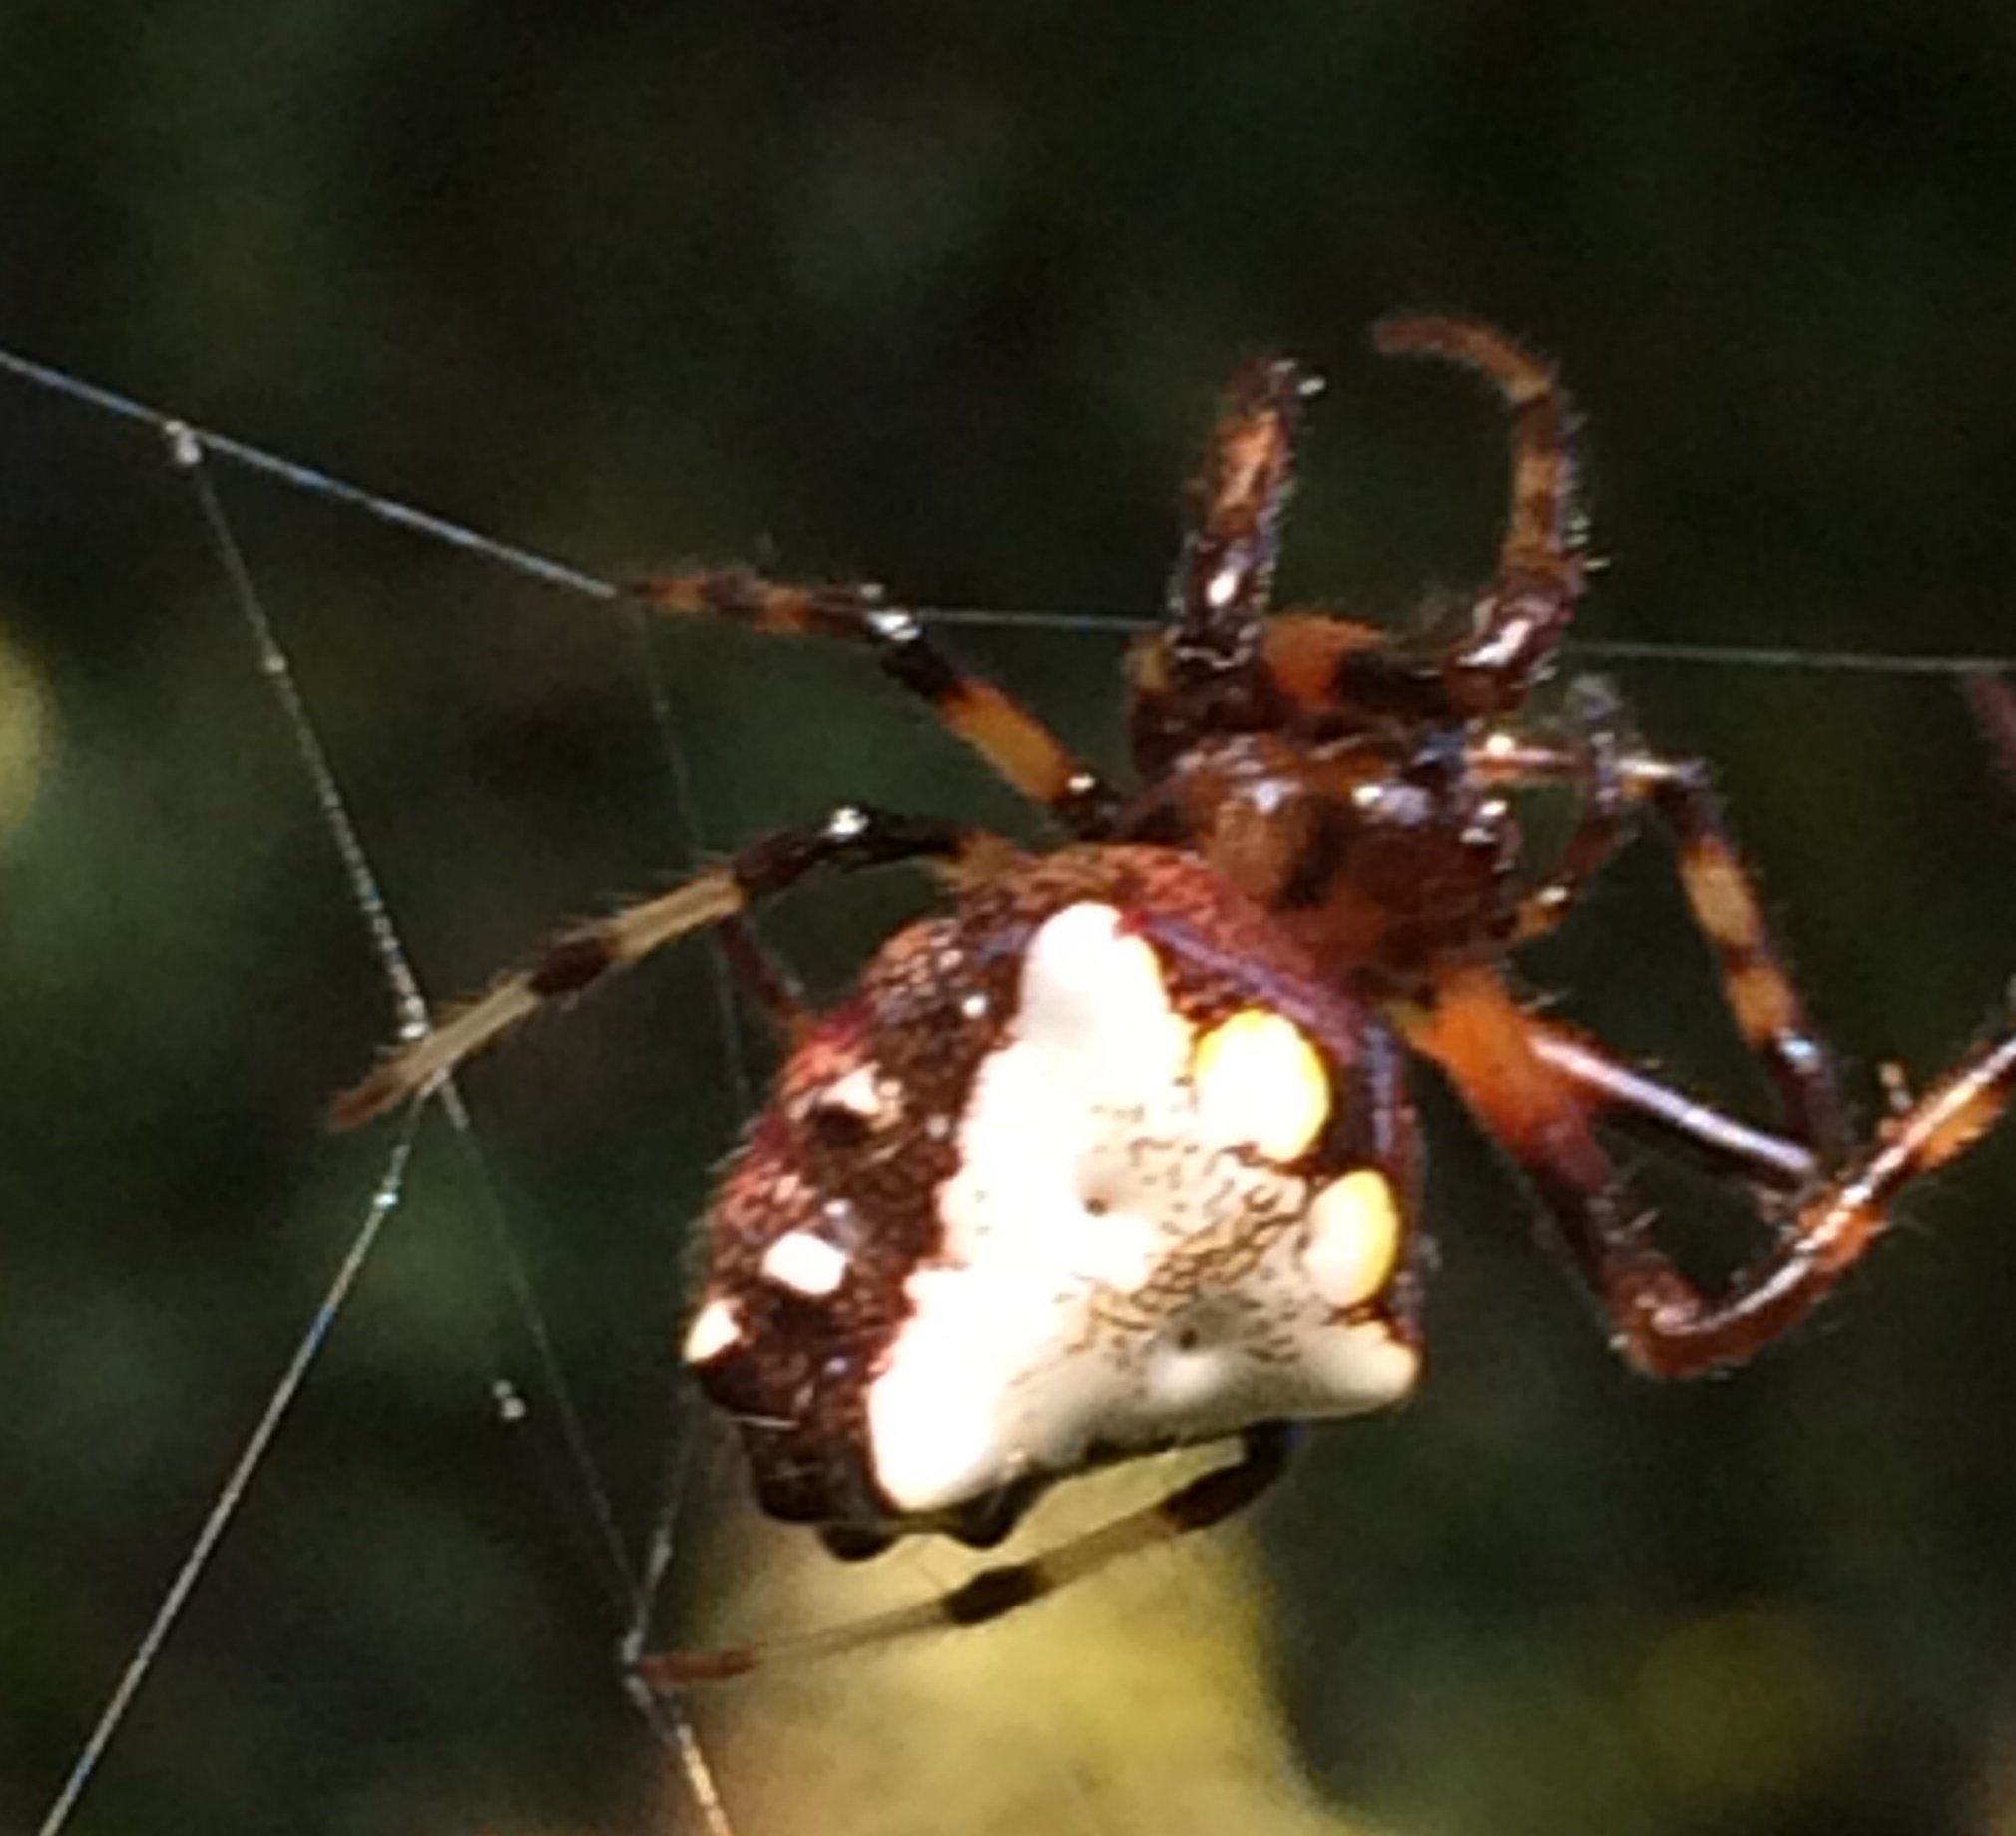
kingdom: Animalia
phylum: Arthropoda
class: Arachnida
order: Araneae
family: Araneidae
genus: Verrucosa
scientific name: Verrucosa arenata
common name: Orb weavers
